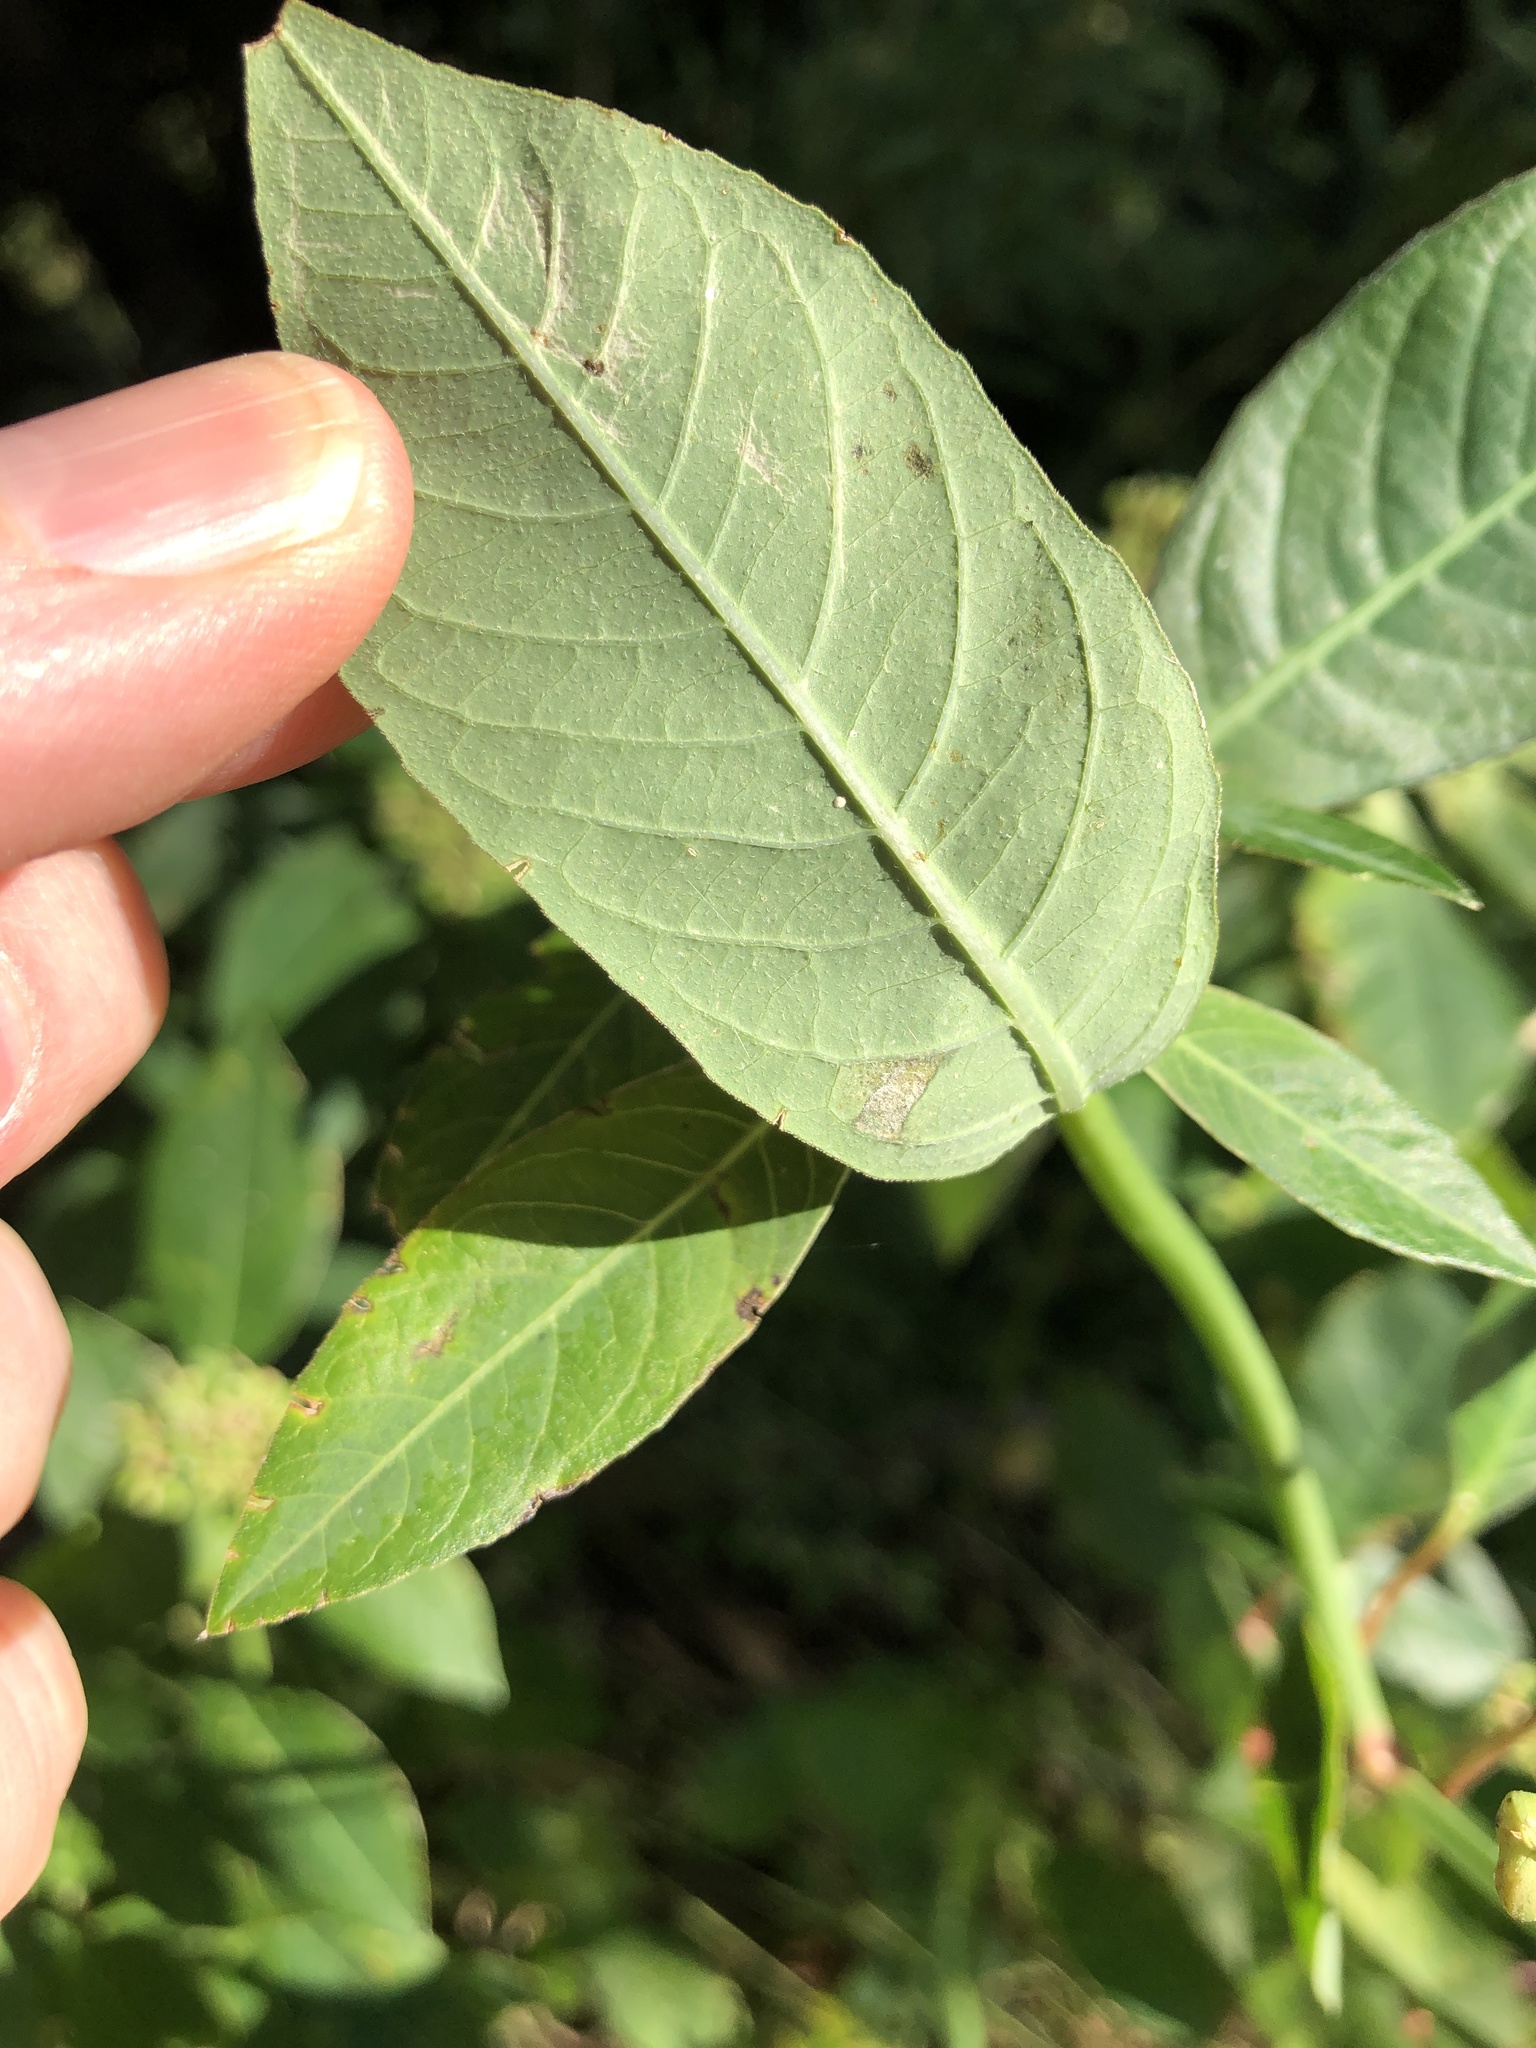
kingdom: Plantae
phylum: Tracheophyta
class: Magnoliopsida
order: Malpighiales
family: Euphorbiaceae
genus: Euphorbia
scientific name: Euphorbia heterophylla
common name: Mexican fireplant
